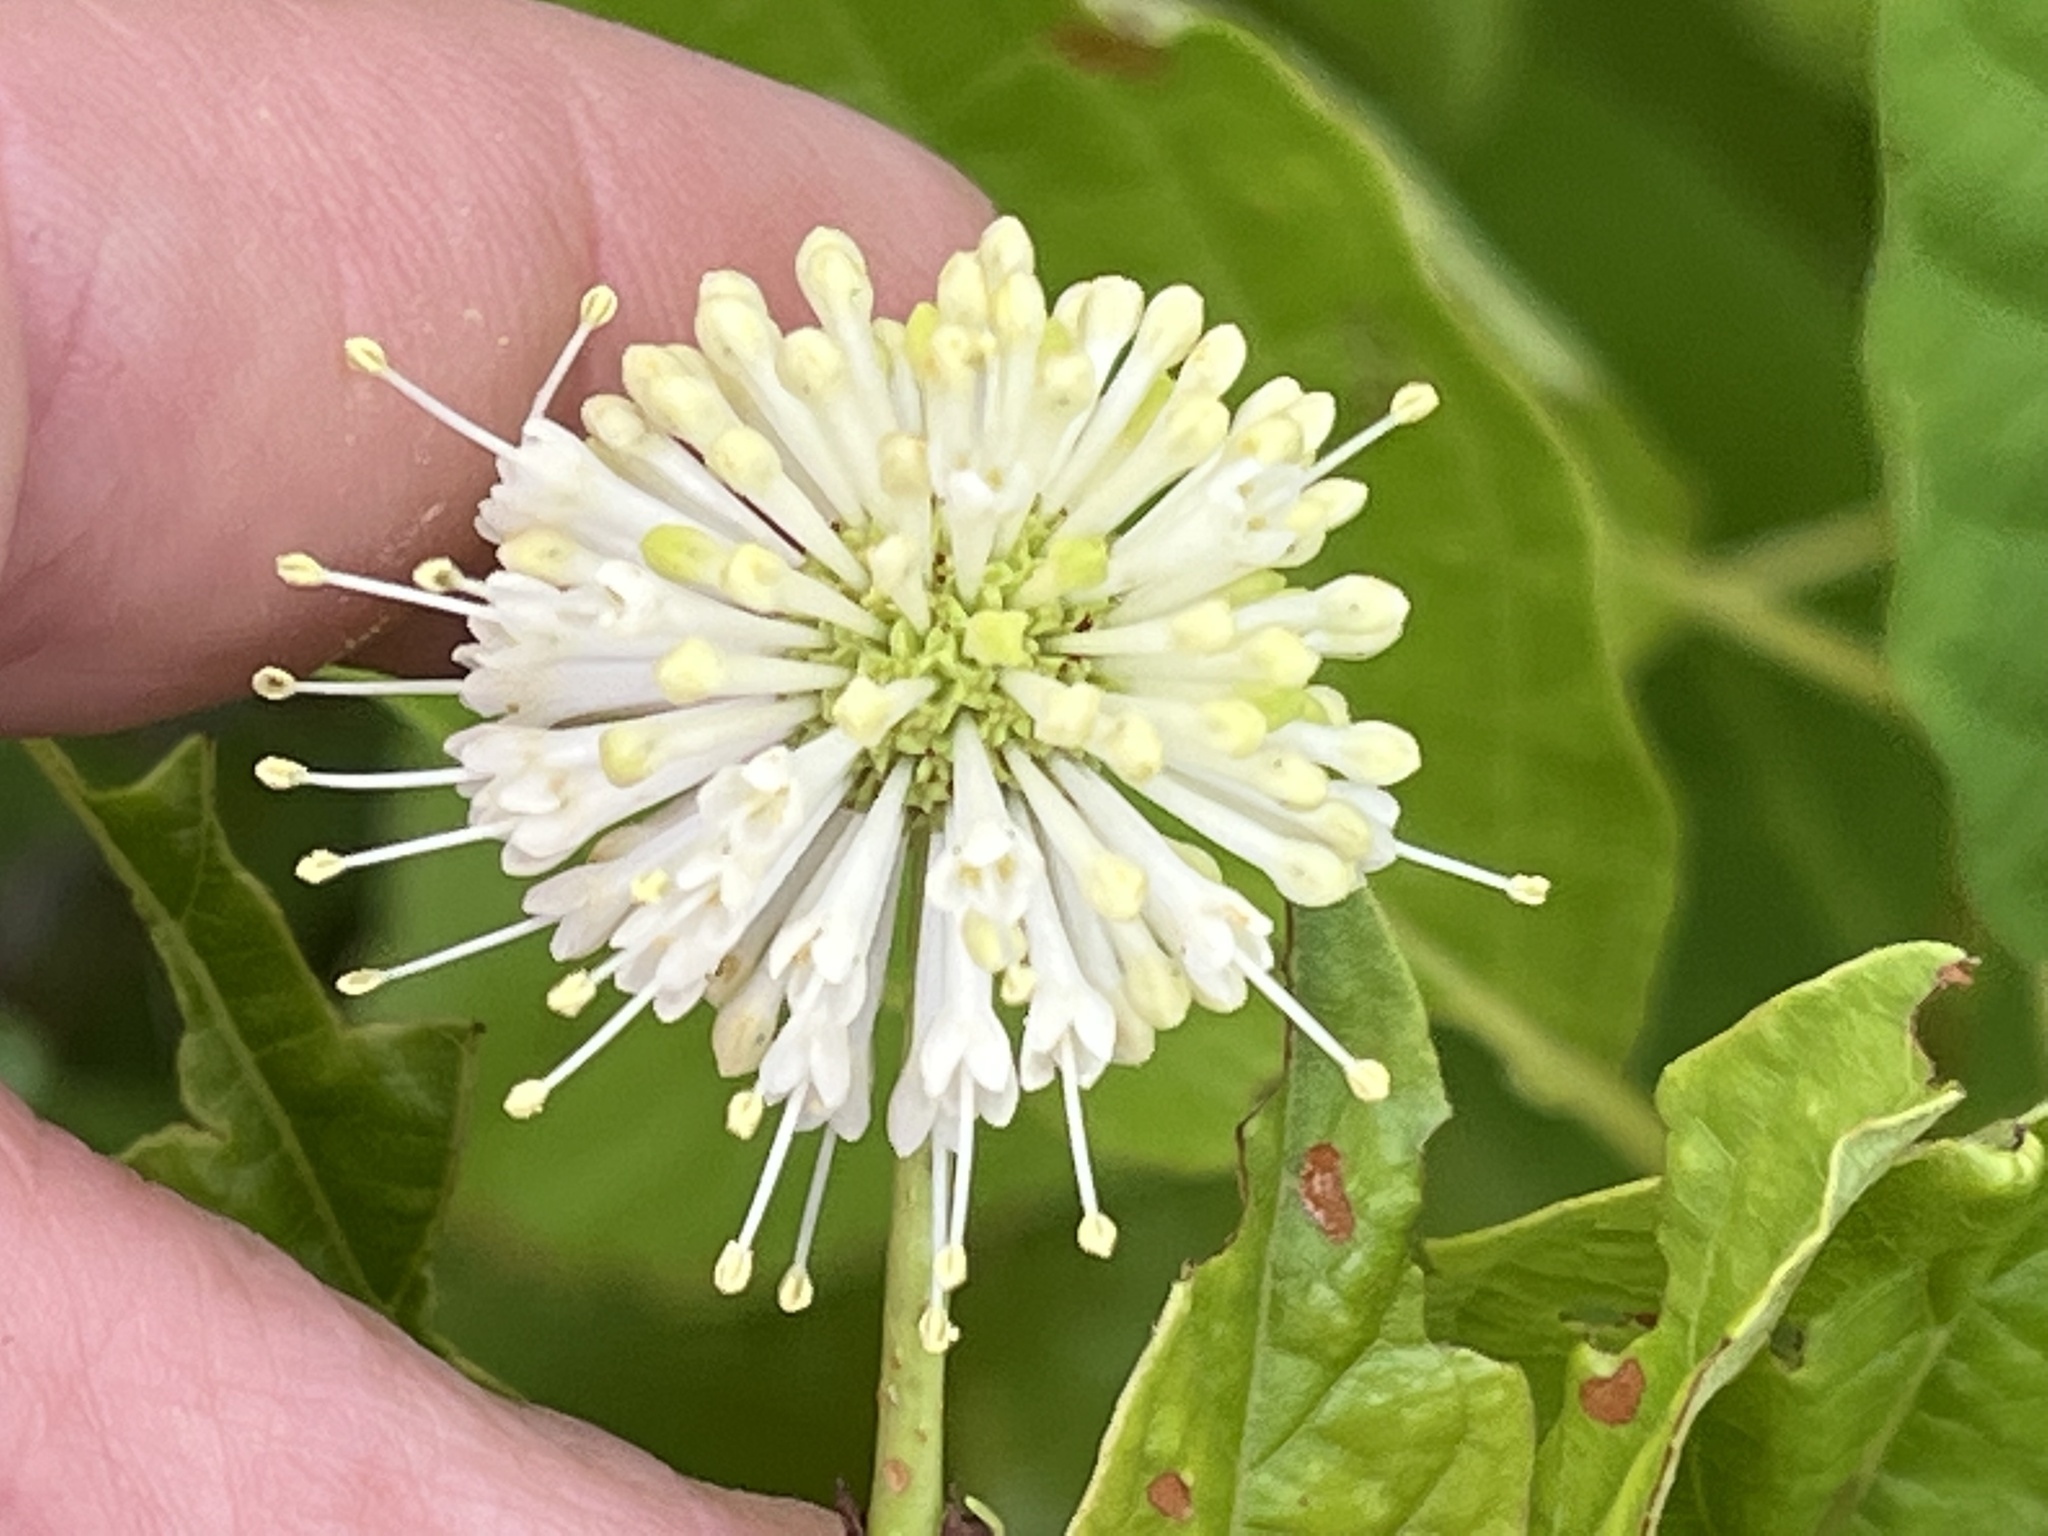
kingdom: Plantae
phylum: Tracheophyta
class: Magnoliopsida
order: Gentianales
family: Rubiaceae
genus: Cephalanthus
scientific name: Cephalanthus occidentalis
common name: Button-willow
